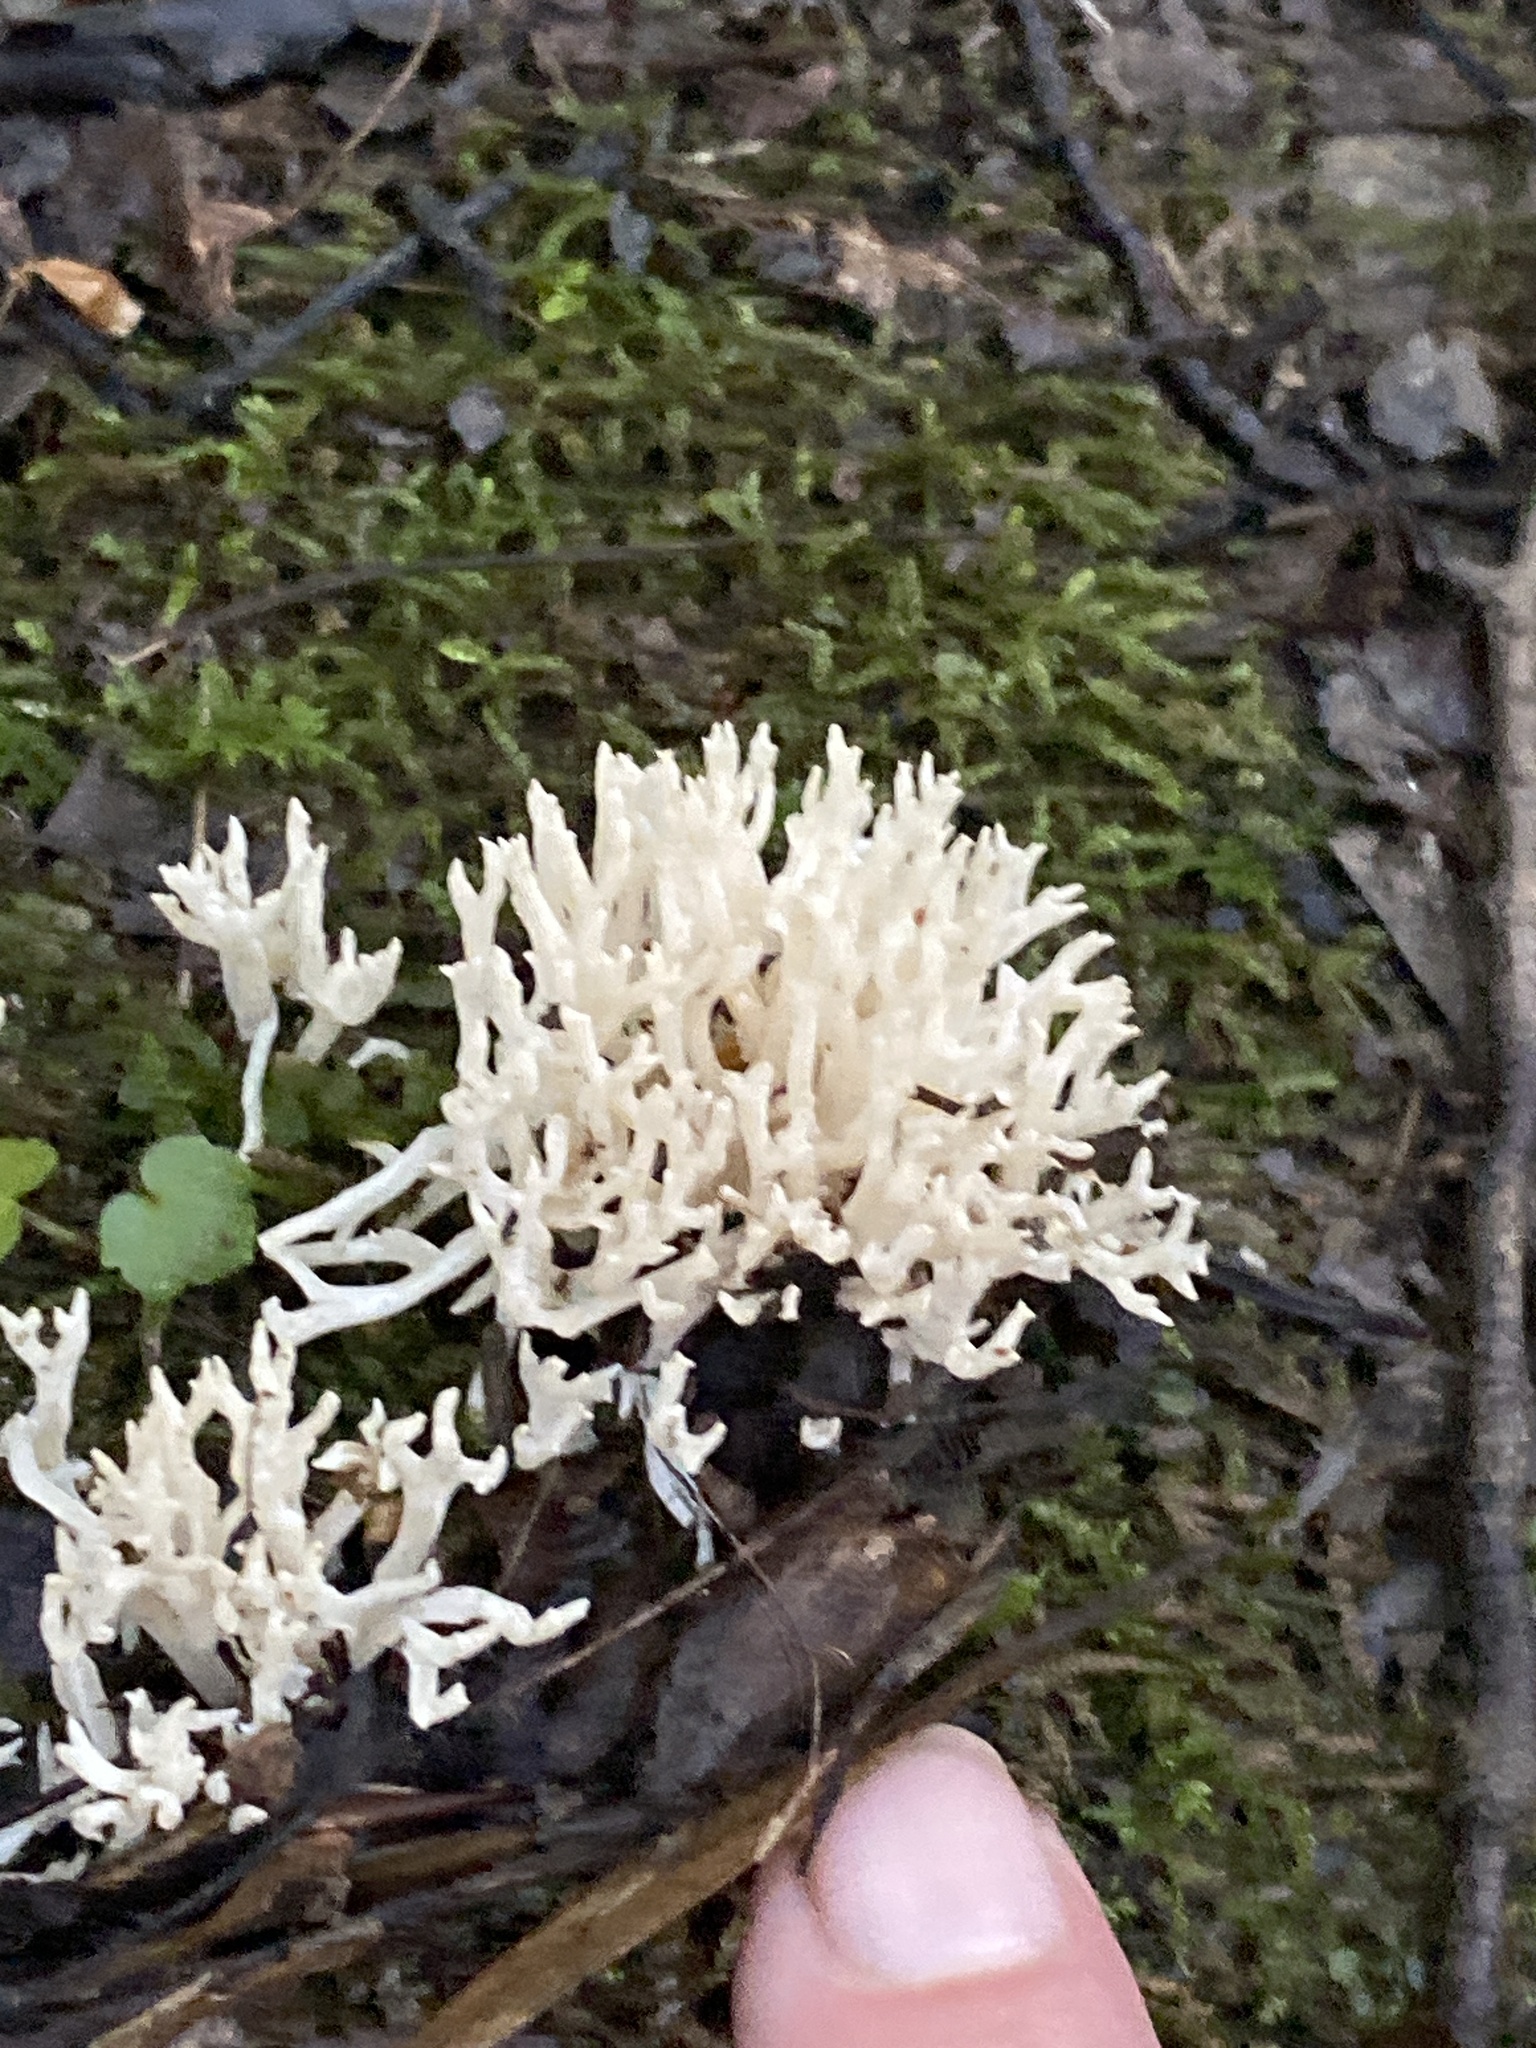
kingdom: Fungi
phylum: Basidiomycota
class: Agaricomycetes
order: Agaricales
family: Clavariaceae
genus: Ramariopsis
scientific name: Ramariopsis kunzei
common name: Ivory coral
